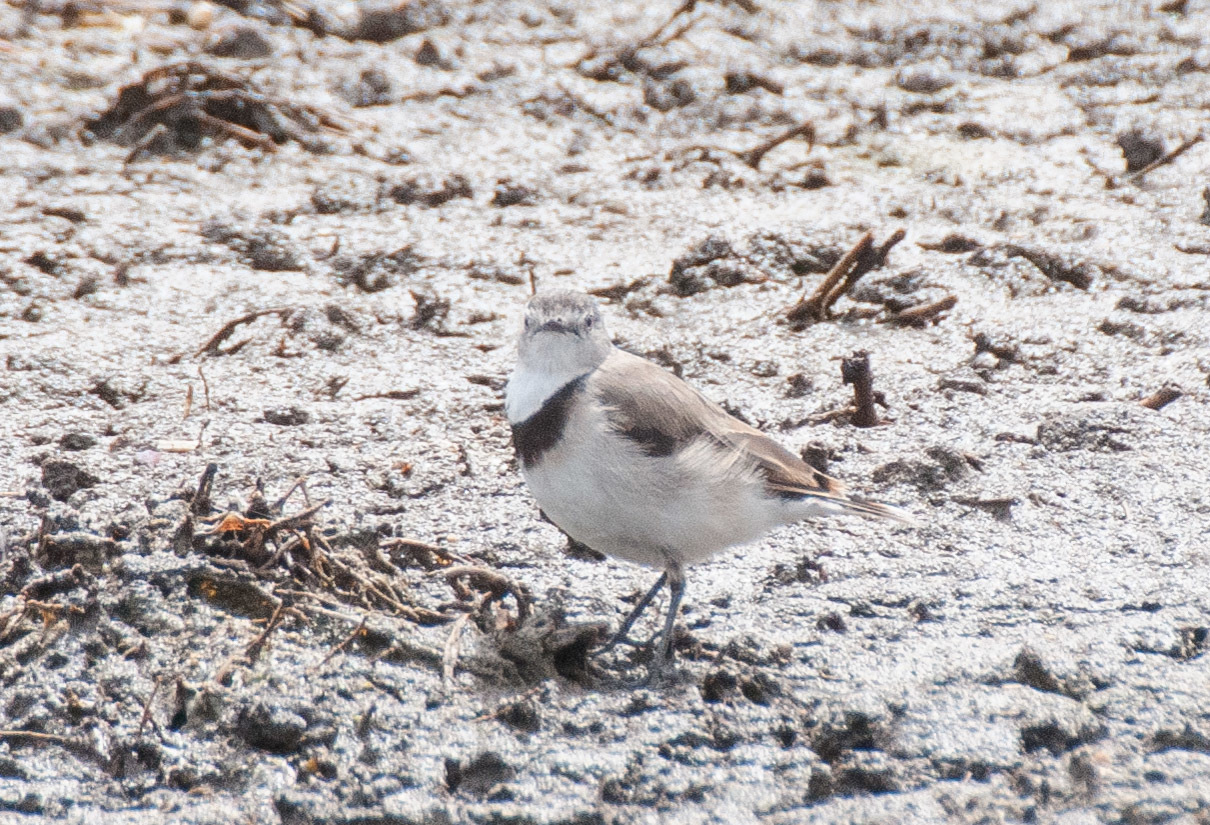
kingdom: Animalia
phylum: Chordata
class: Aves
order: Passeriformes
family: Meliphagidae
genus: Epthianura
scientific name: Epthianura albifrons
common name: White-fronted chat
